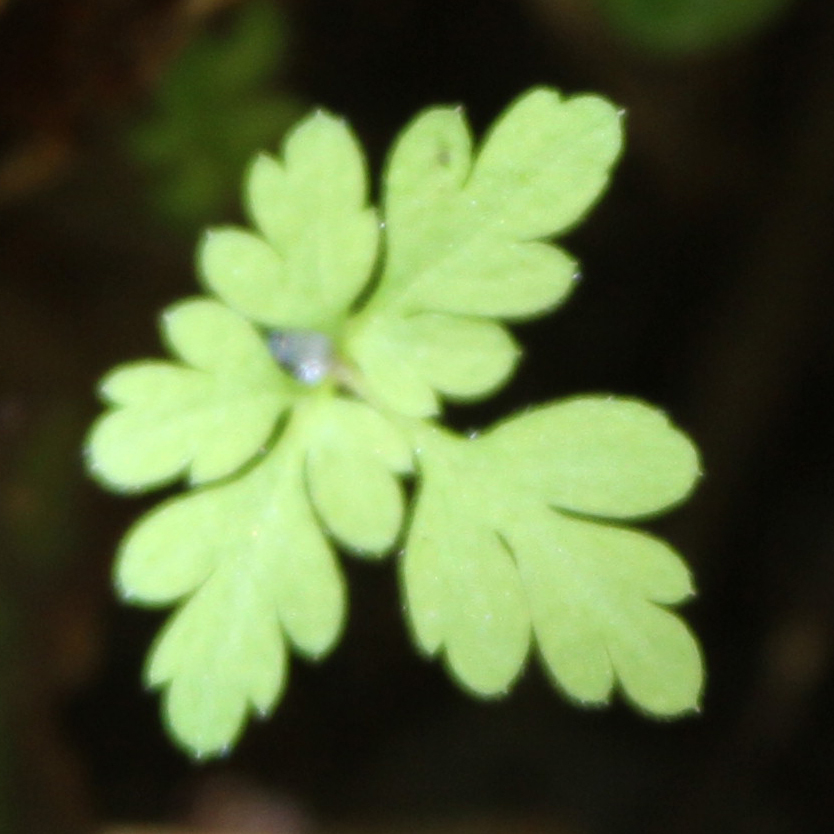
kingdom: Plantae
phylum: Tracheophyta
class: Magnoliopsida
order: Geraniales
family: Geraniaceae
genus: Geranium
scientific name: Geranium robertianum
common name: Herb-robert
